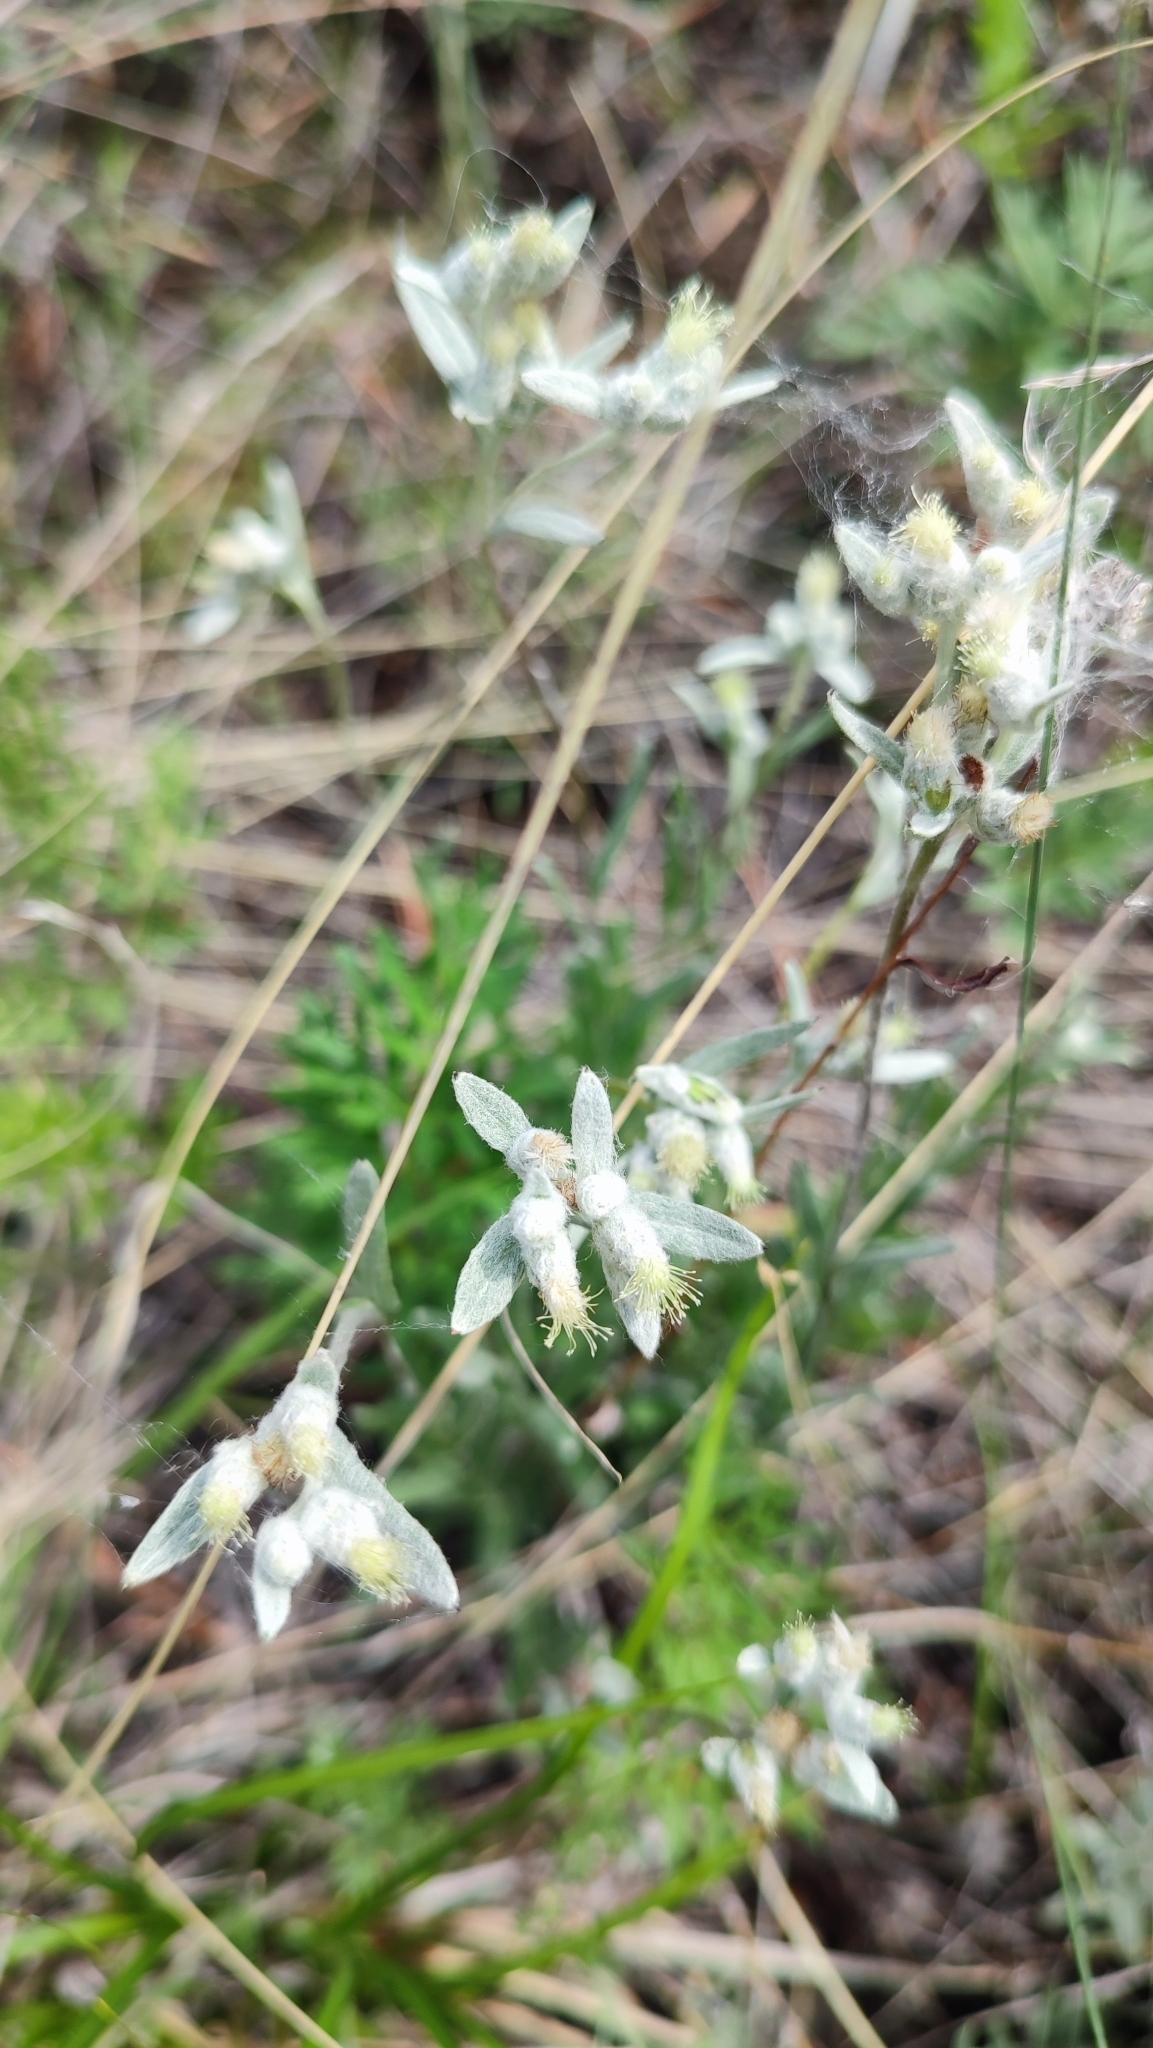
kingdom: Plantae
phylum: Tracheophyta
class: Magnoliopsida
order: Asterales
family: Asteraceae
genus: Leontopodium
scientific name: Leontopodium leontopodioides
